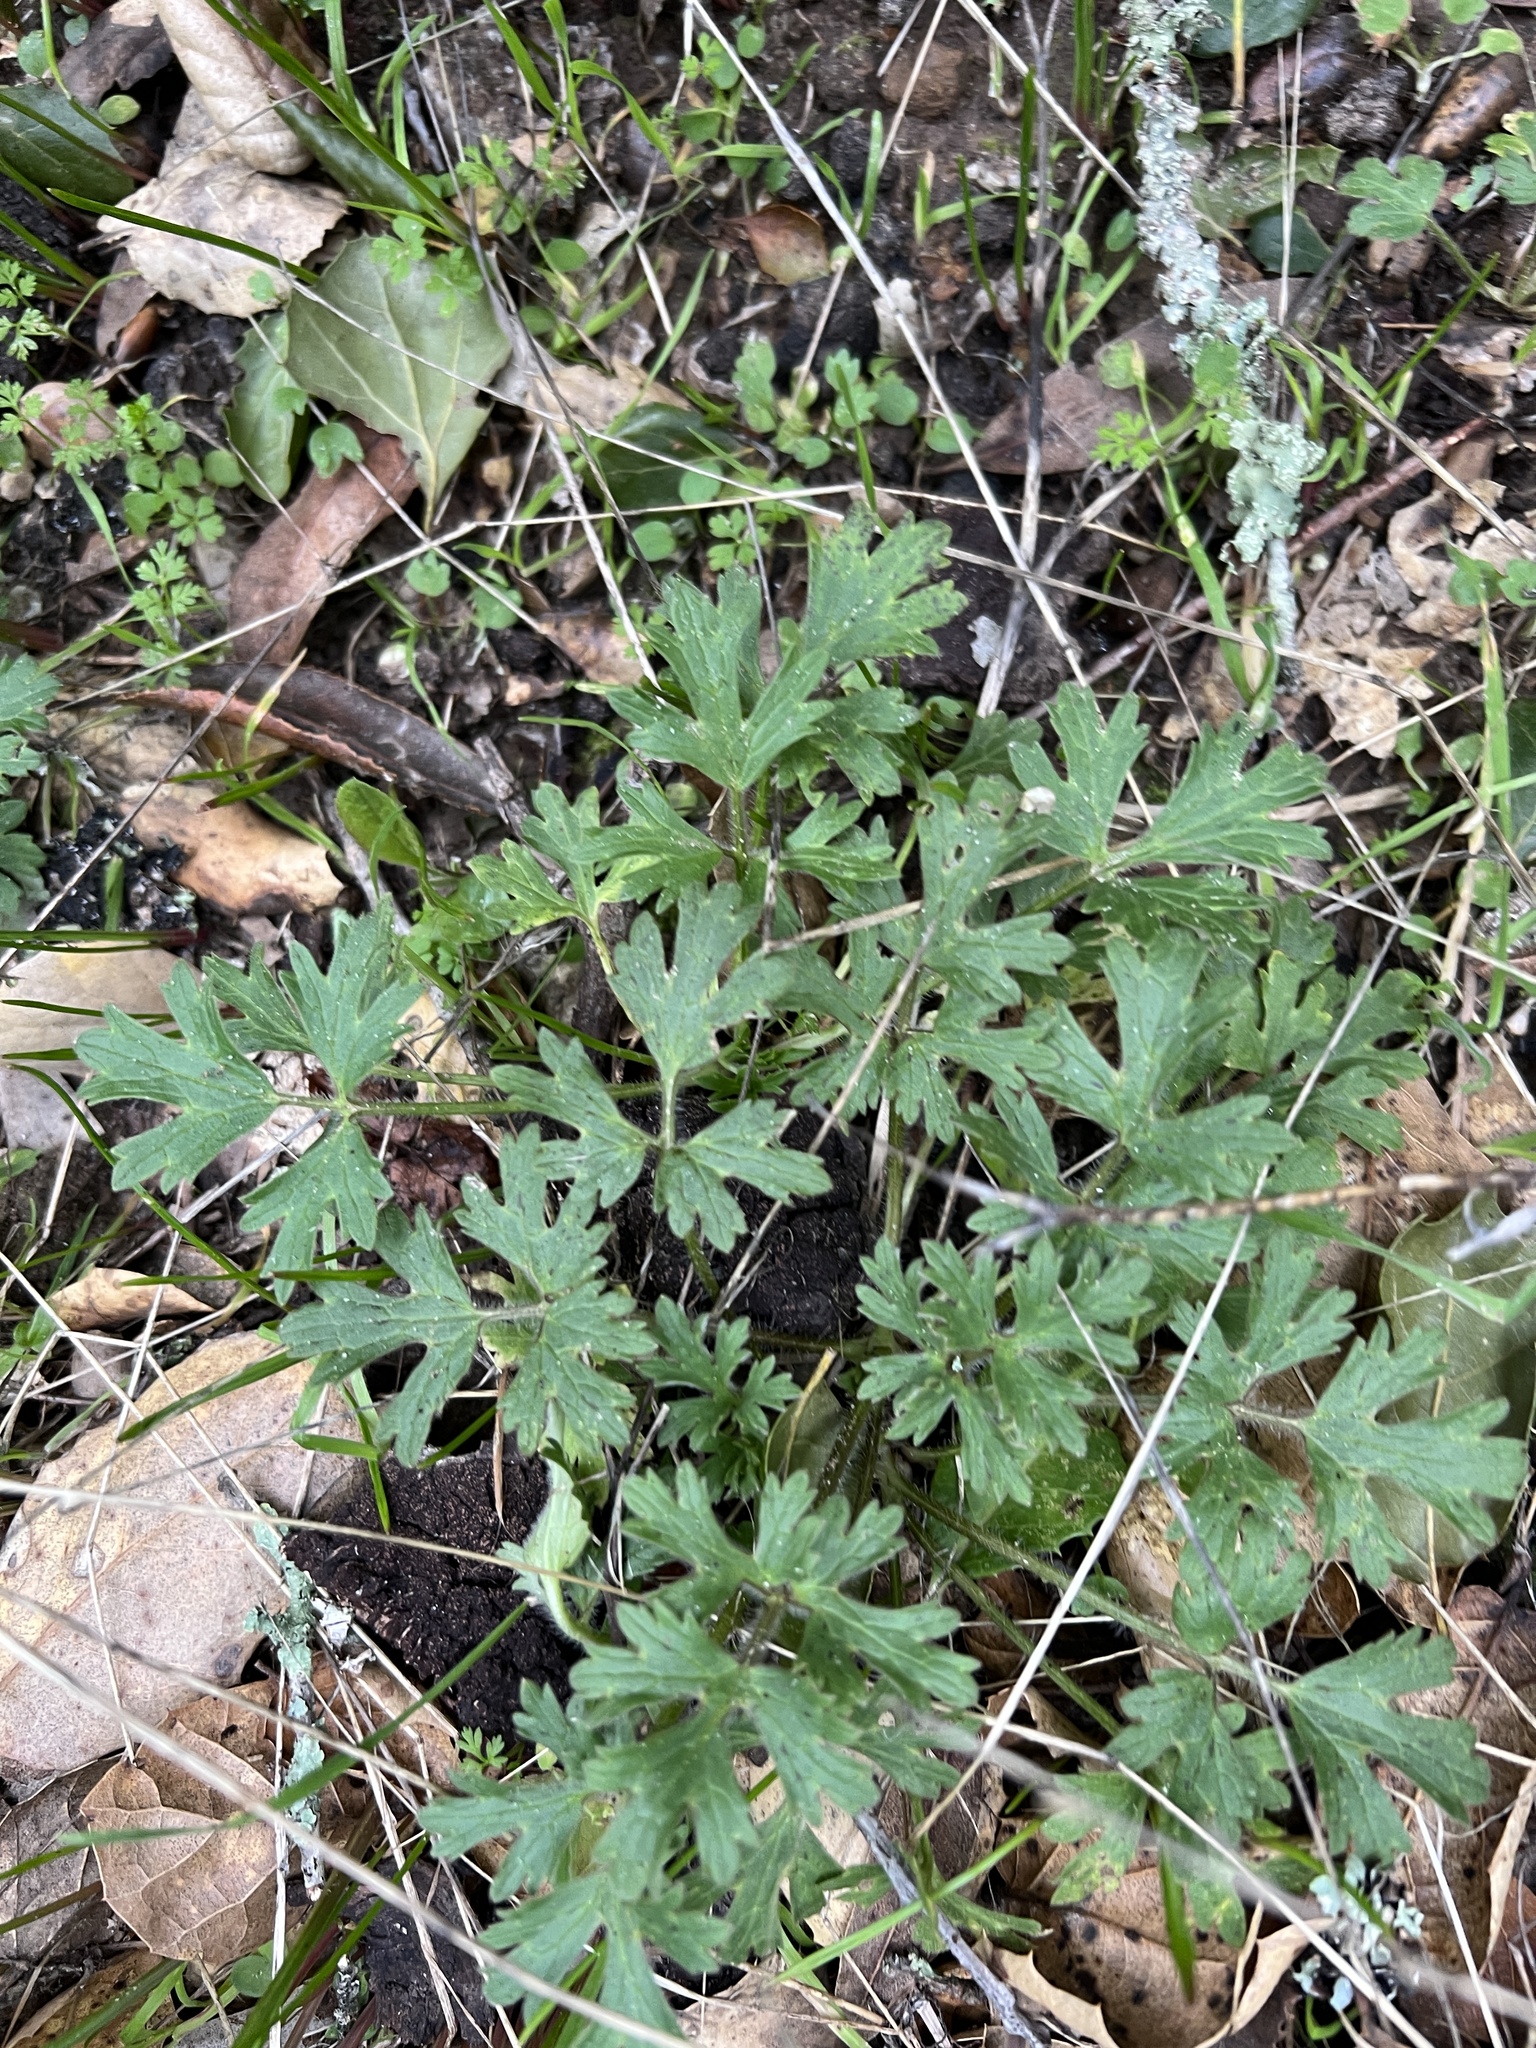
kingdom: Plantae
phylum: Tracheophyta
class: Magnoliopsida
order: Ranunculales
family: Ranunculaceae
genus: Ranunculus
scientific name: Ranunculus californicus
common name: California buttercup
